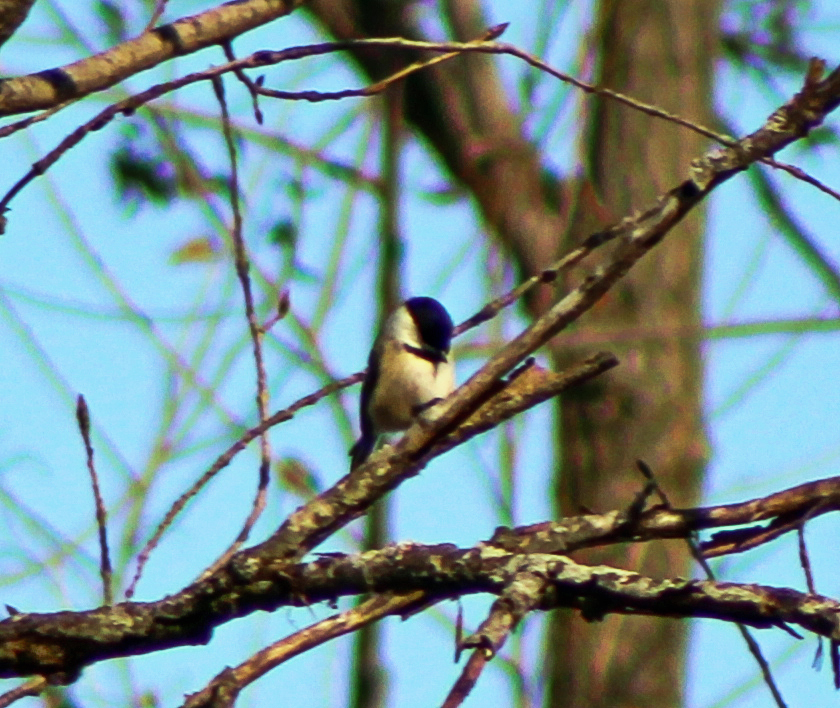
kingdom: Animalia
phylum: Chordata
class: Aves
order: Passeriformes
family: Paridae
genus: Poecile
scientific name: Poecile atricapillus
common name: Black-capped chickadee
